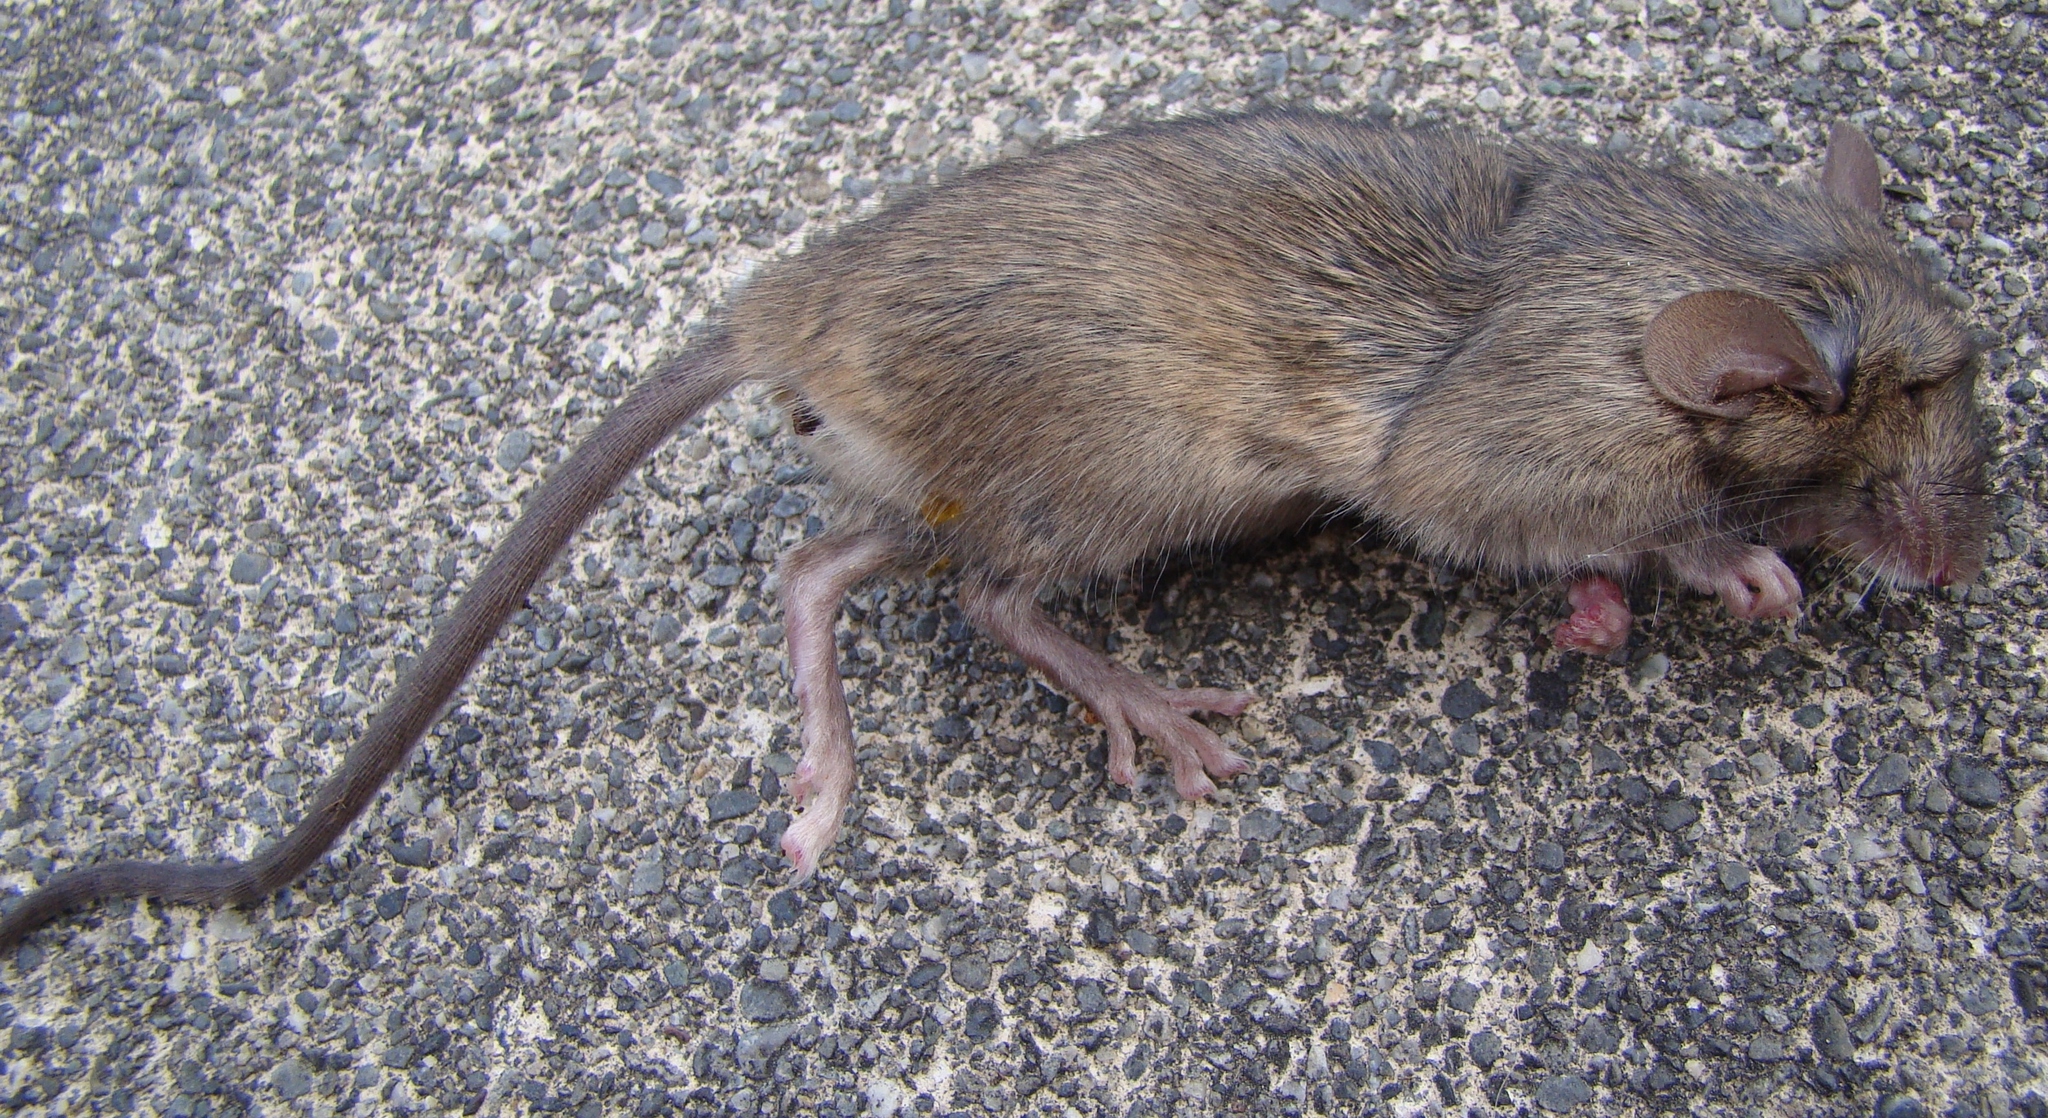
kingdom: Animalia
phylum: Chordata
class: Mammalia
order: Rodentia
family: Muridae
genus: Rattus
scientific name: Rattus rattus
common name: Black rat
